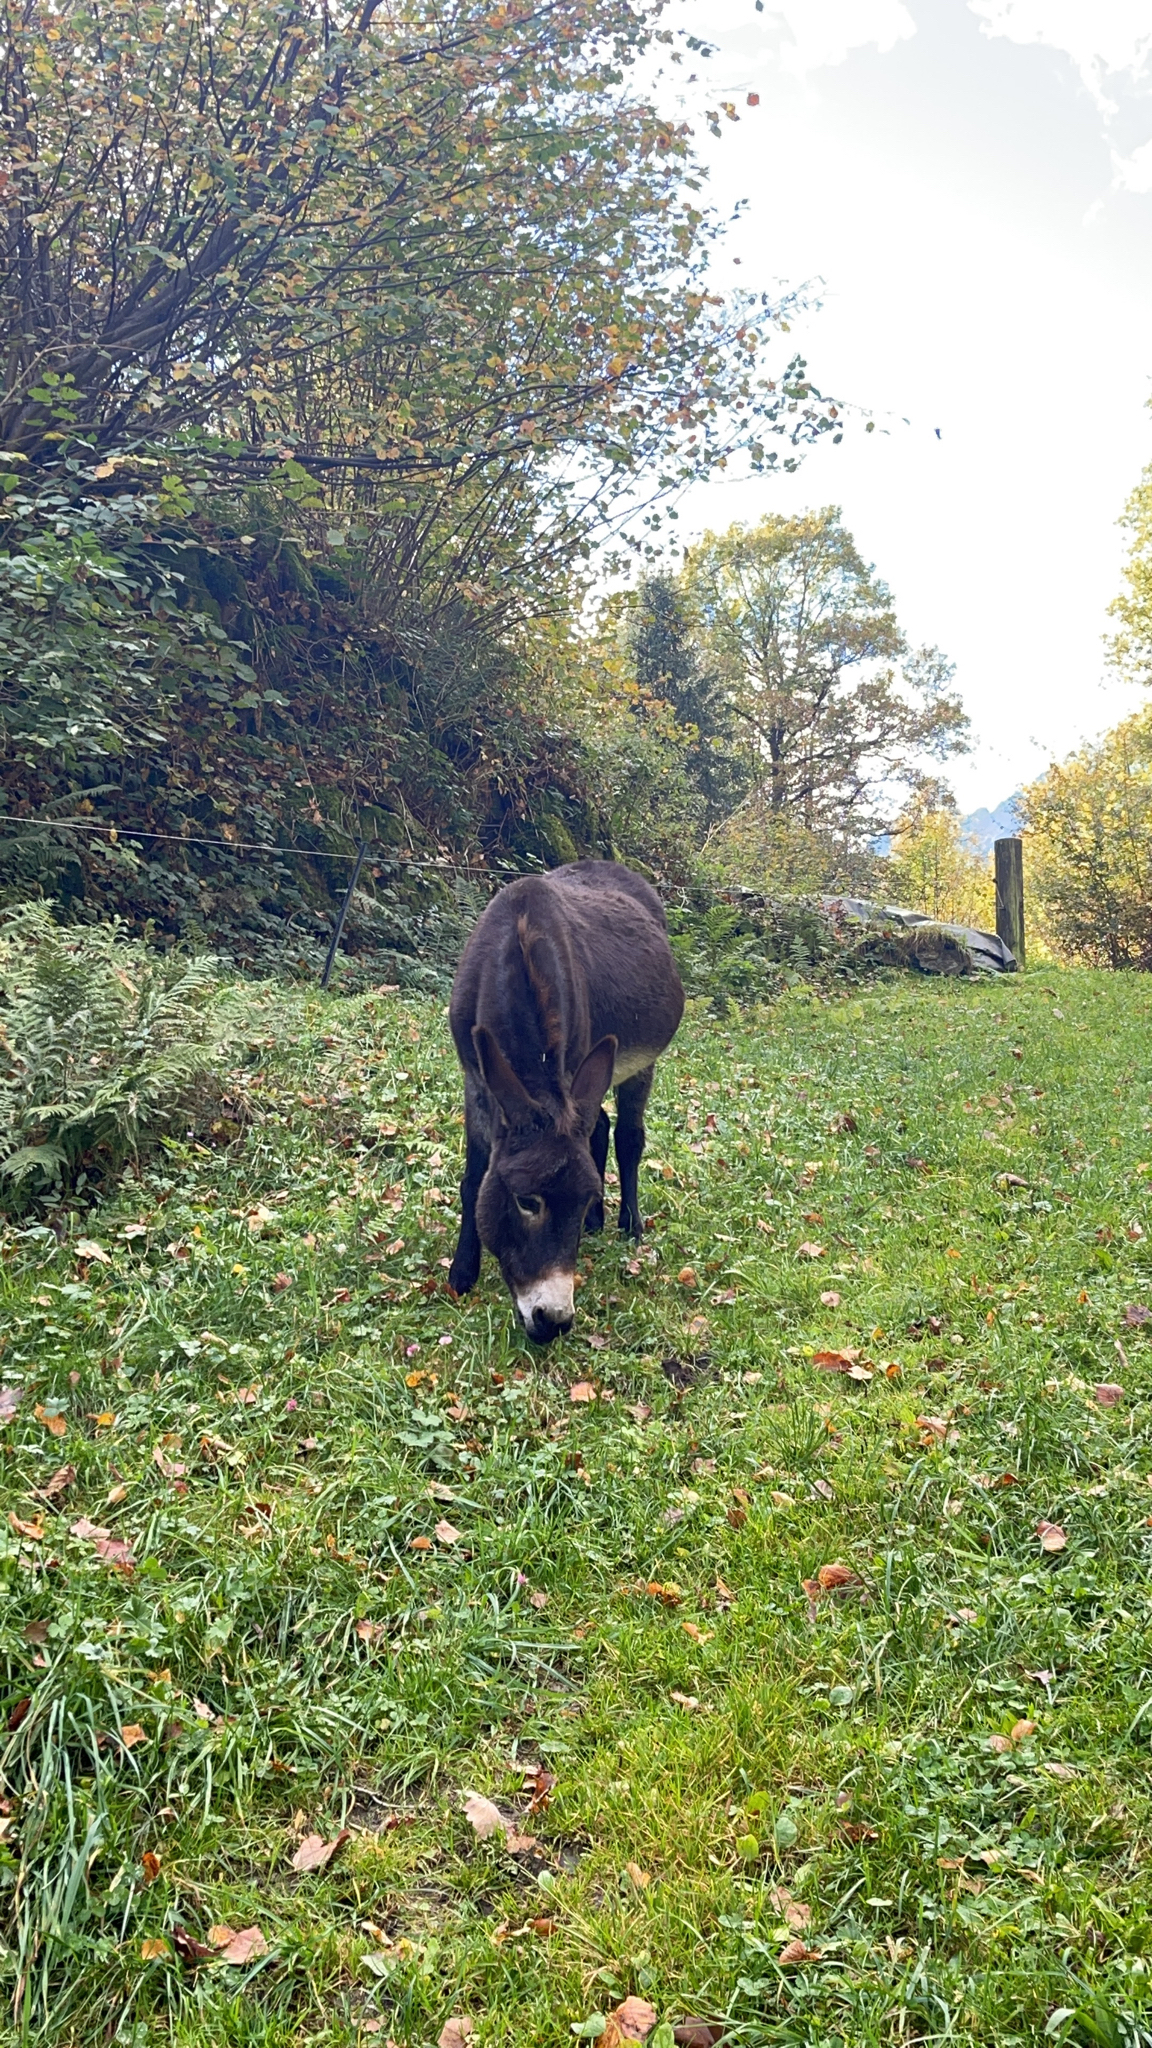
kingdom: Animalia
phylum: Chordata
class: Mammalia
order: Perissodactyla
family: Equidae
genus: Equus
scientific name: Equus asinus
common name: Ass
